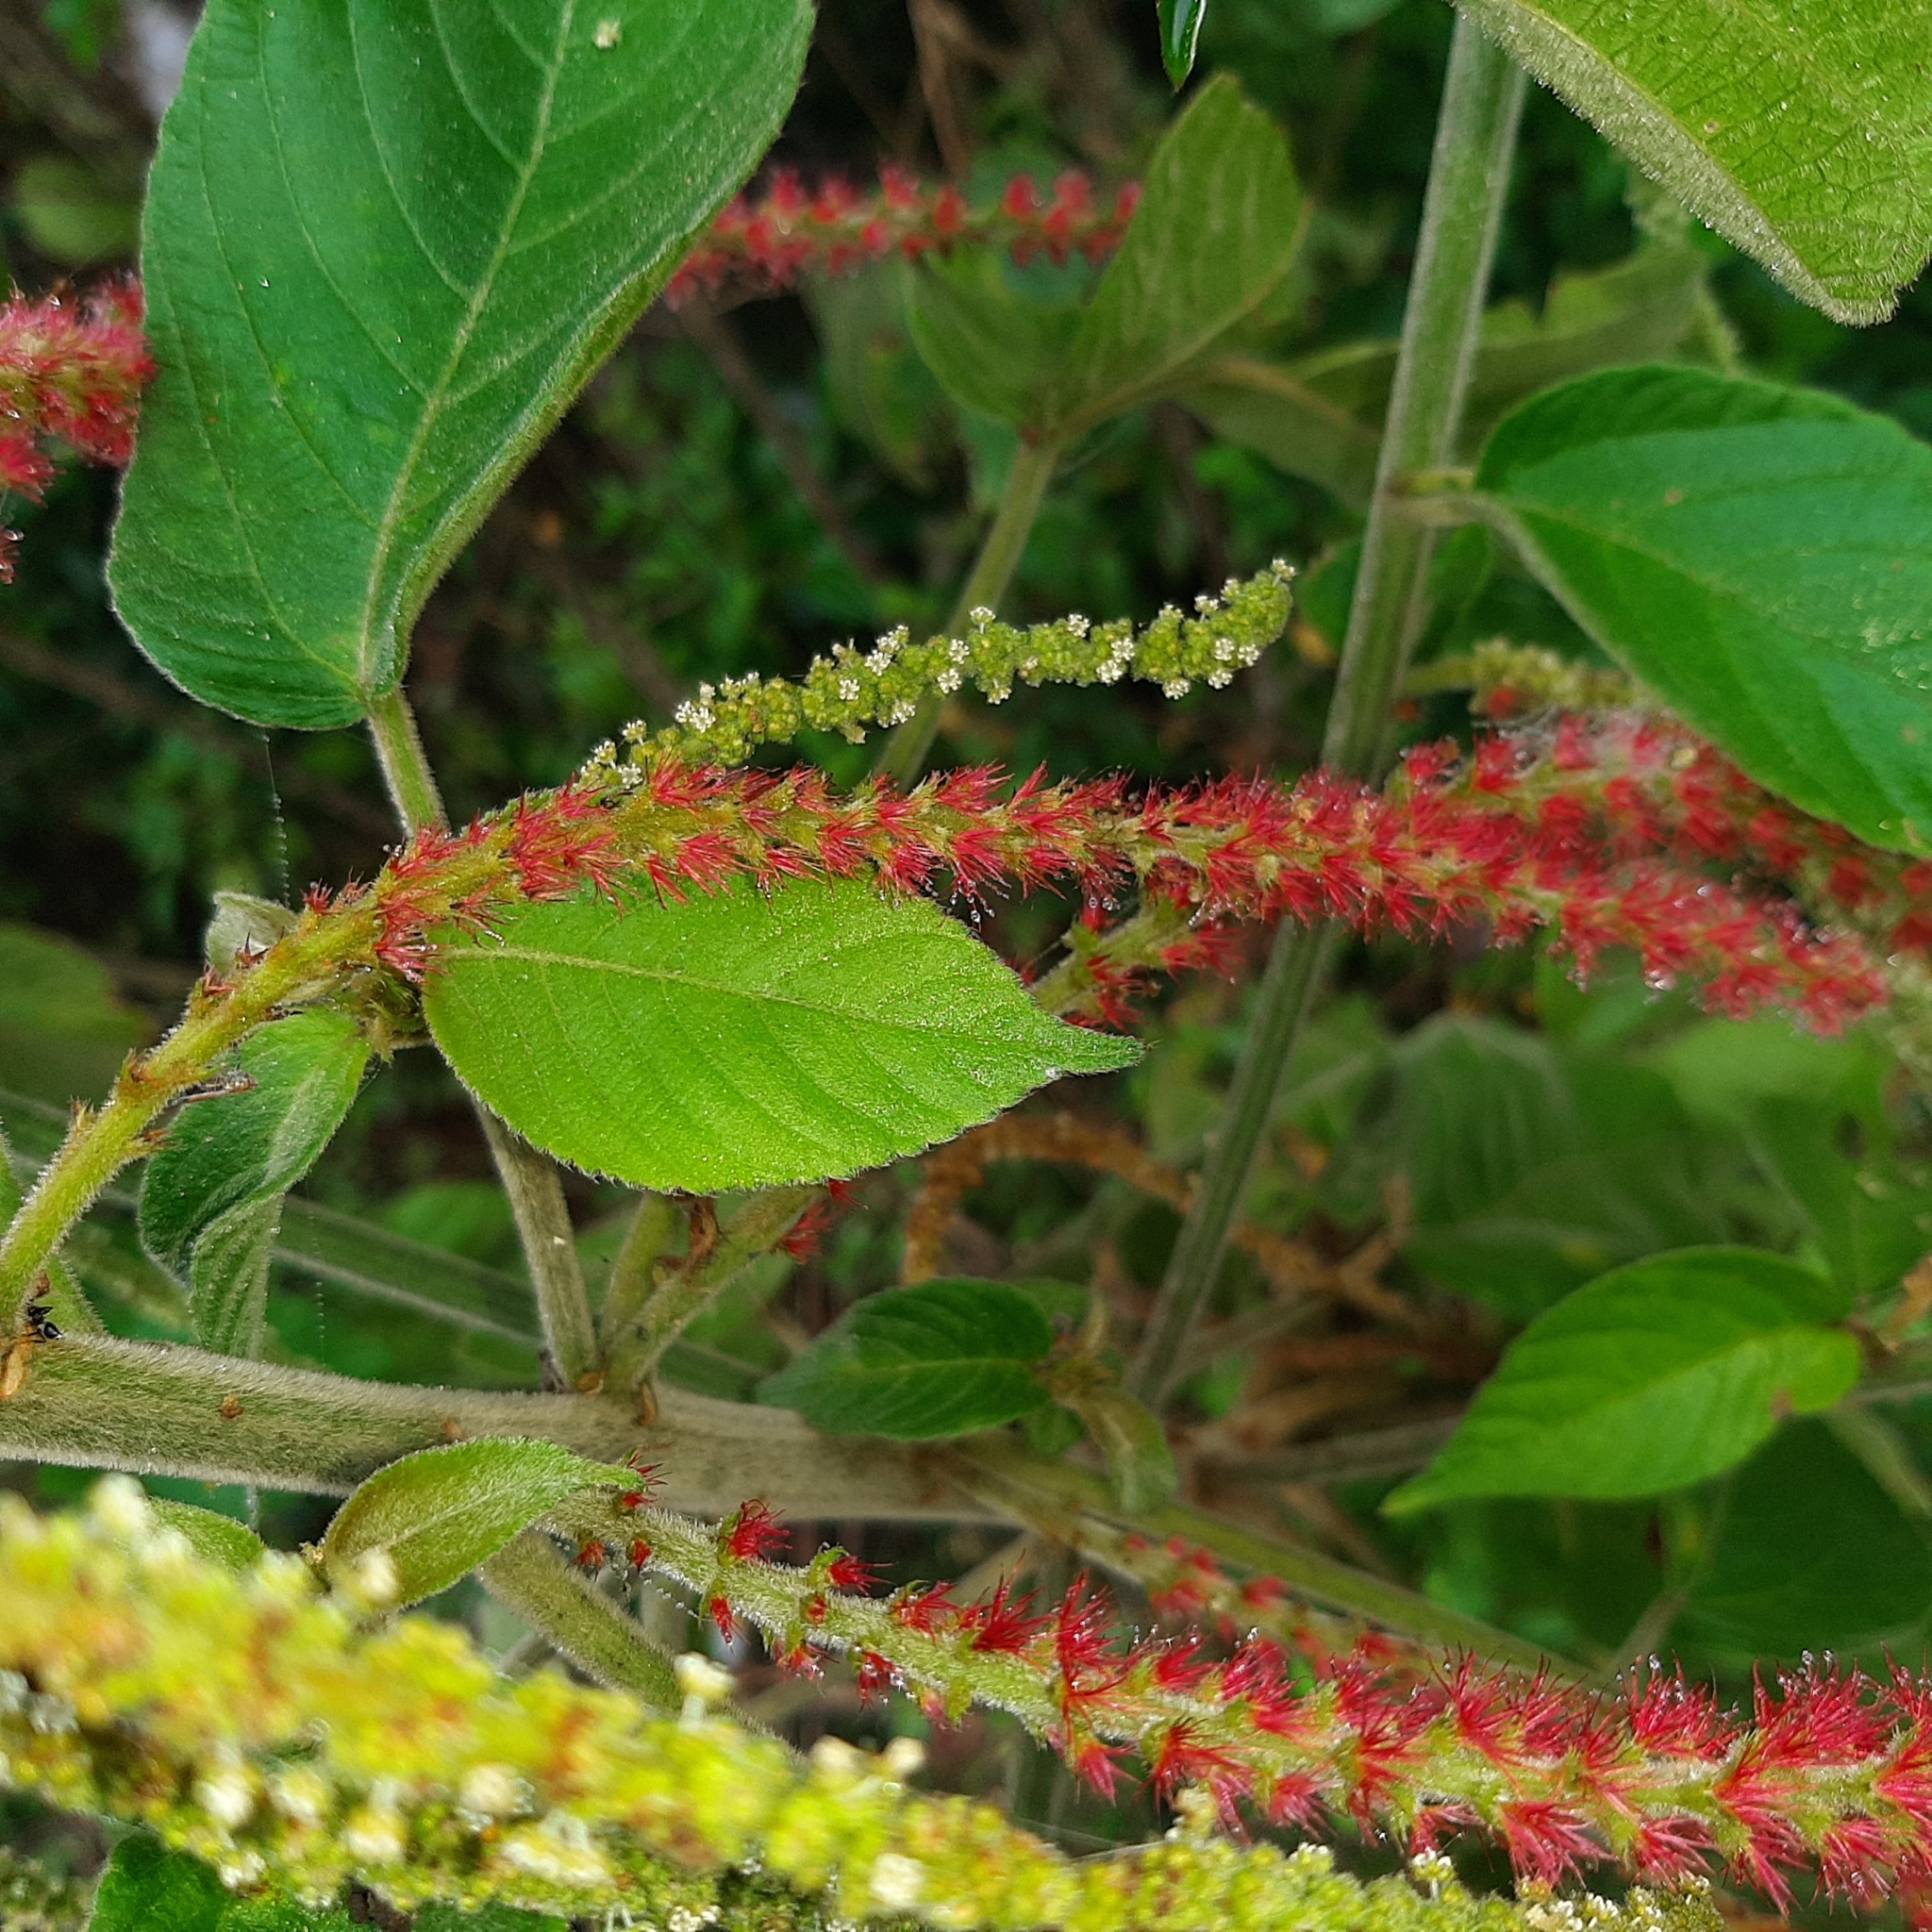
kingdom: Plantae
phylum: Tracheophyta
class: Magnoliopsida
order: Malpighiales
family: Euphorbiaceae
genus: Acalypha
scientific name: Acalypha monostachya
